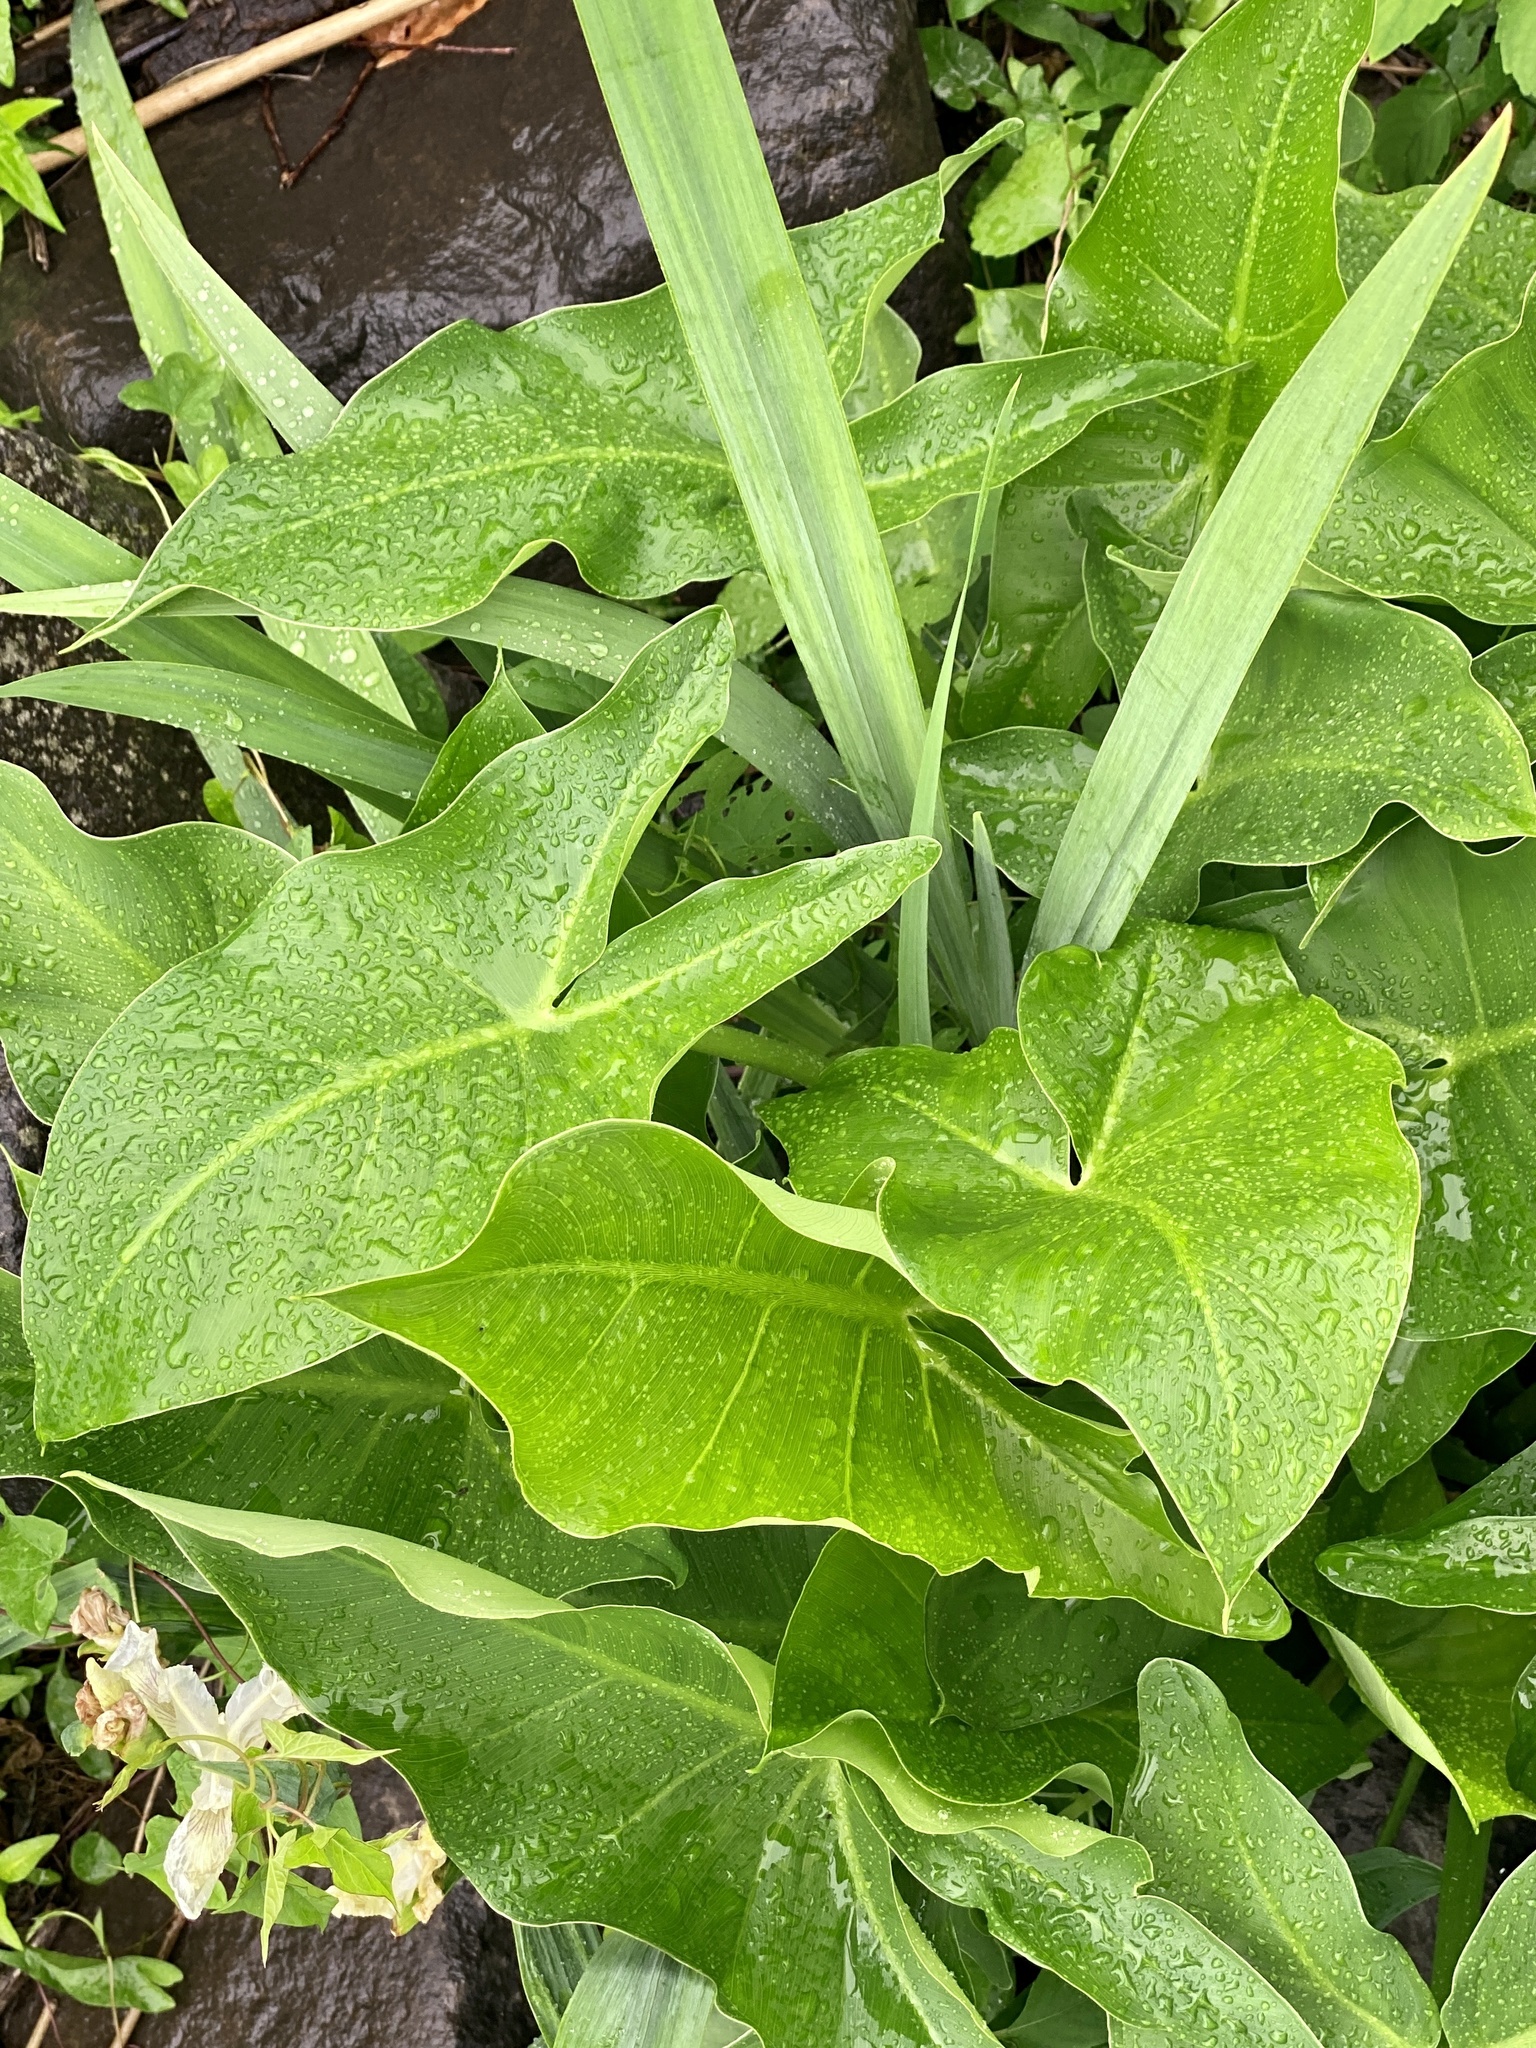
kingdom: Plantae
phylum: Tracheophyta
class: Liliopsida
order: Alismatales
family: Araceae
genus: Peltandra
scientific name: Peltandra virginica
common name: Arrow arum
